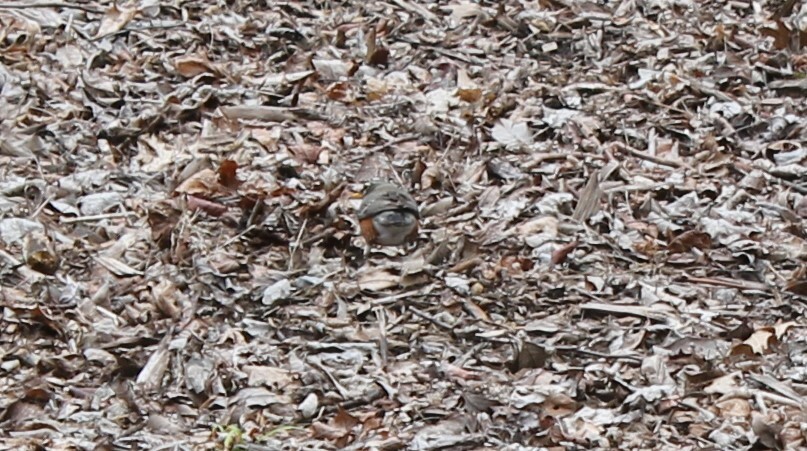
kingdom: Animalia
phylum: Chordata
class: Aves
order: Passeriformes
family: Turdidae
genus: Turdus
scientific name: Turdus migratorius
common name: American robin
